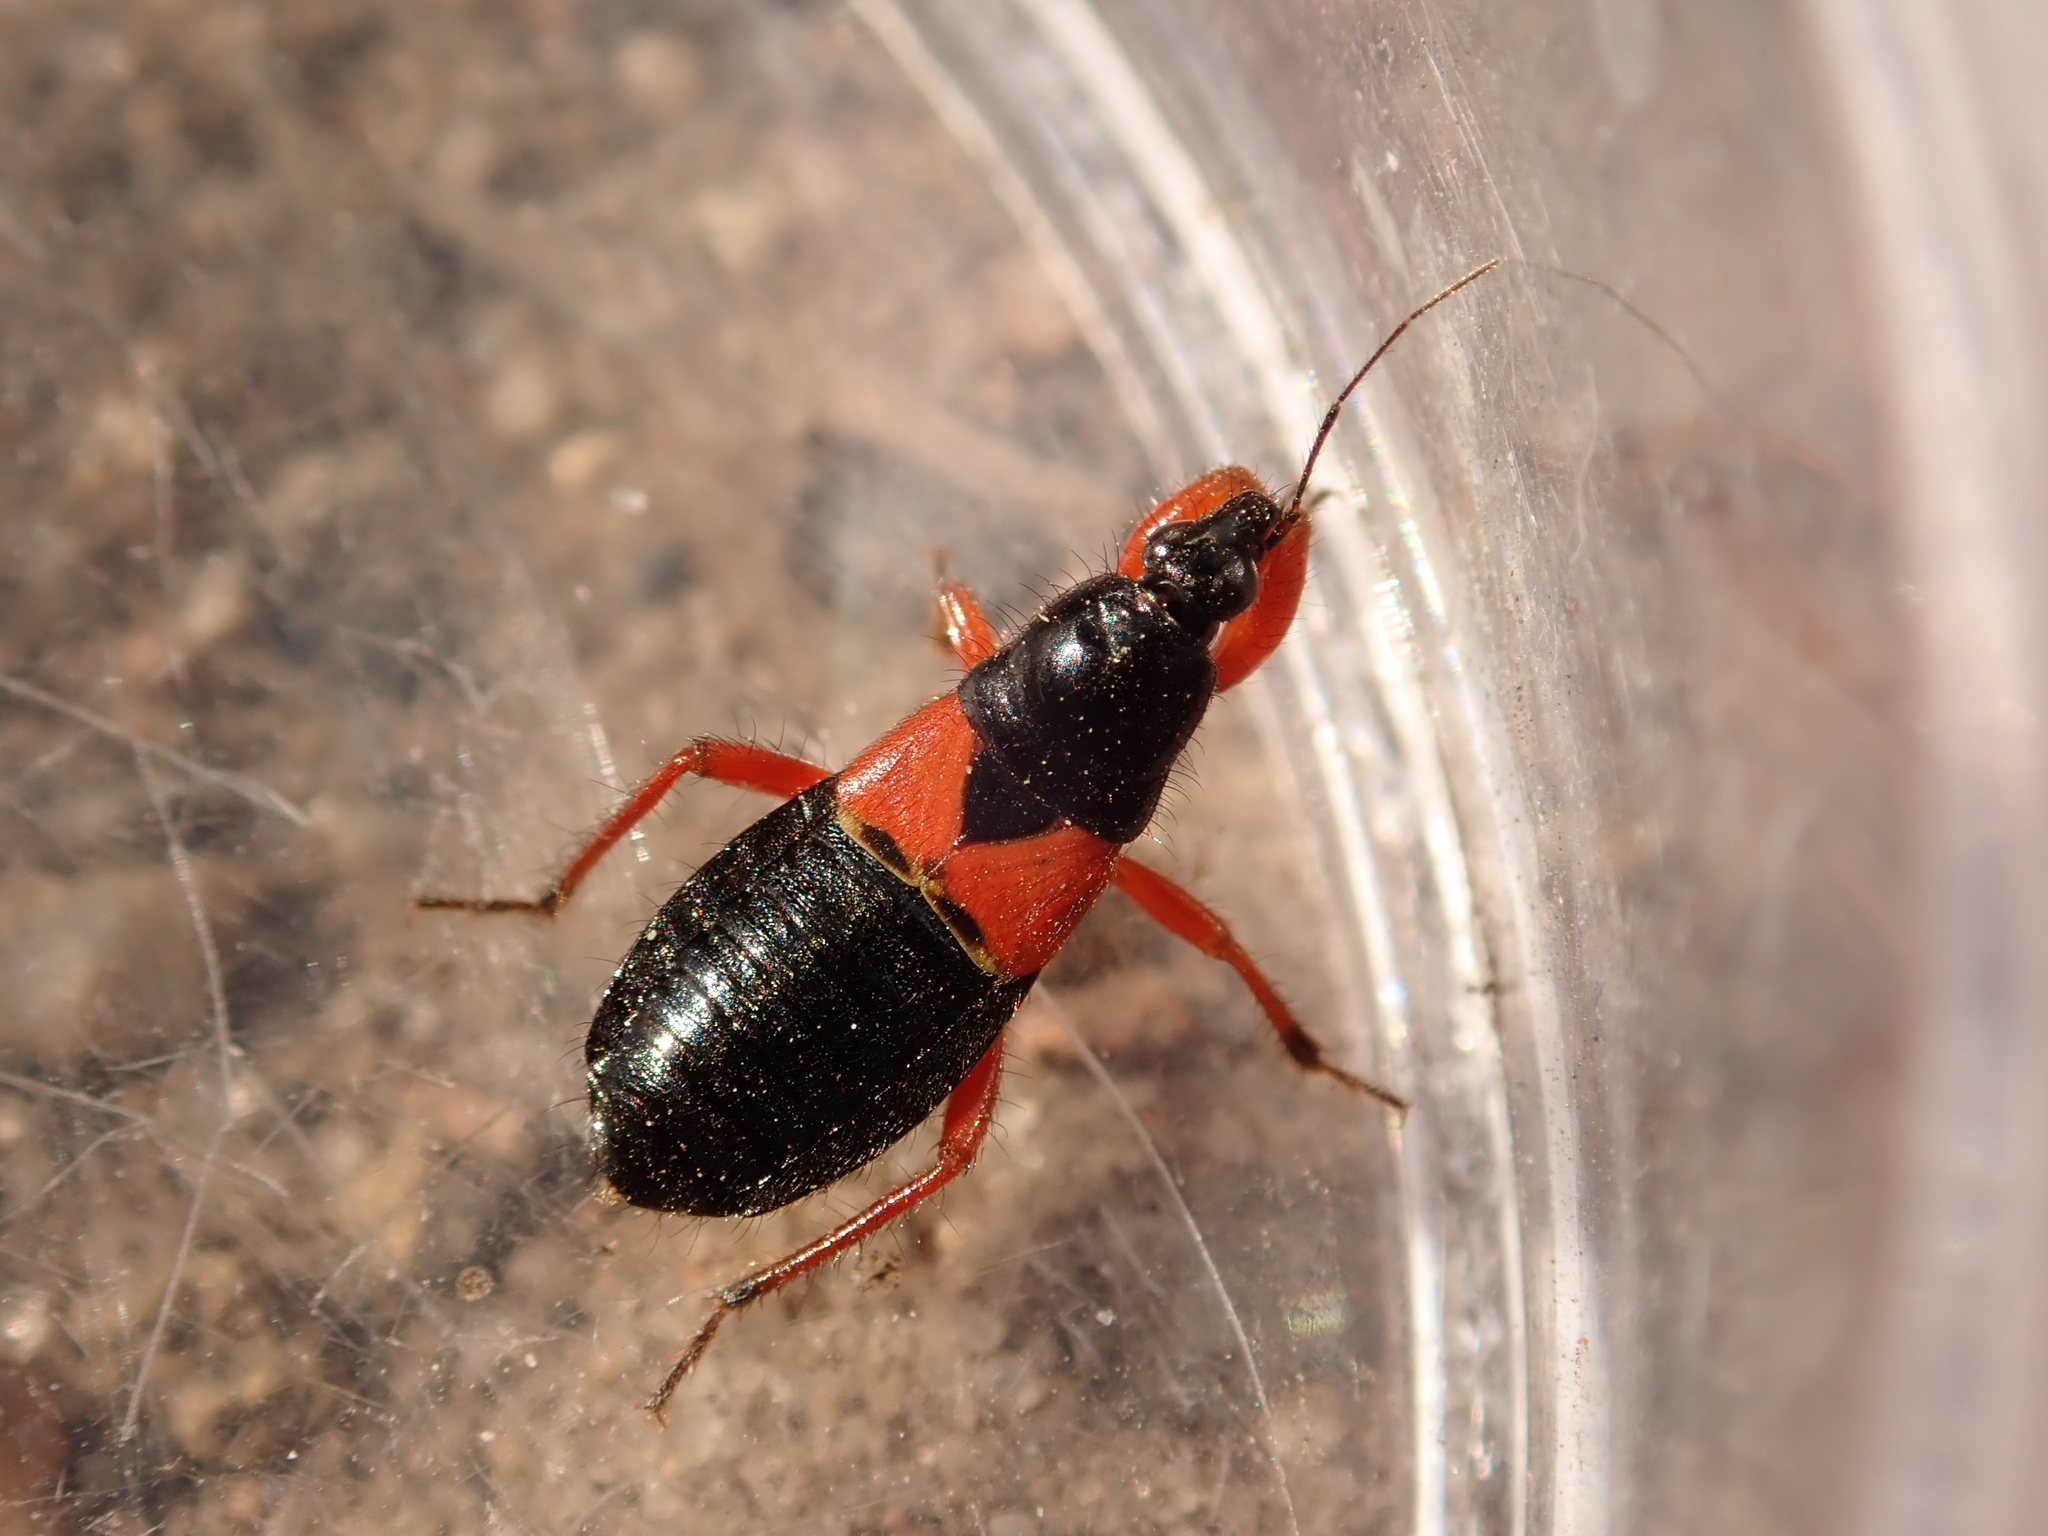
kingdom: Animalia
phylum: Arthropoda
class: Insecta
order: Hemiptera
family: Nabidae
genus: Prostemma
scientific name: Prostemma guttula
